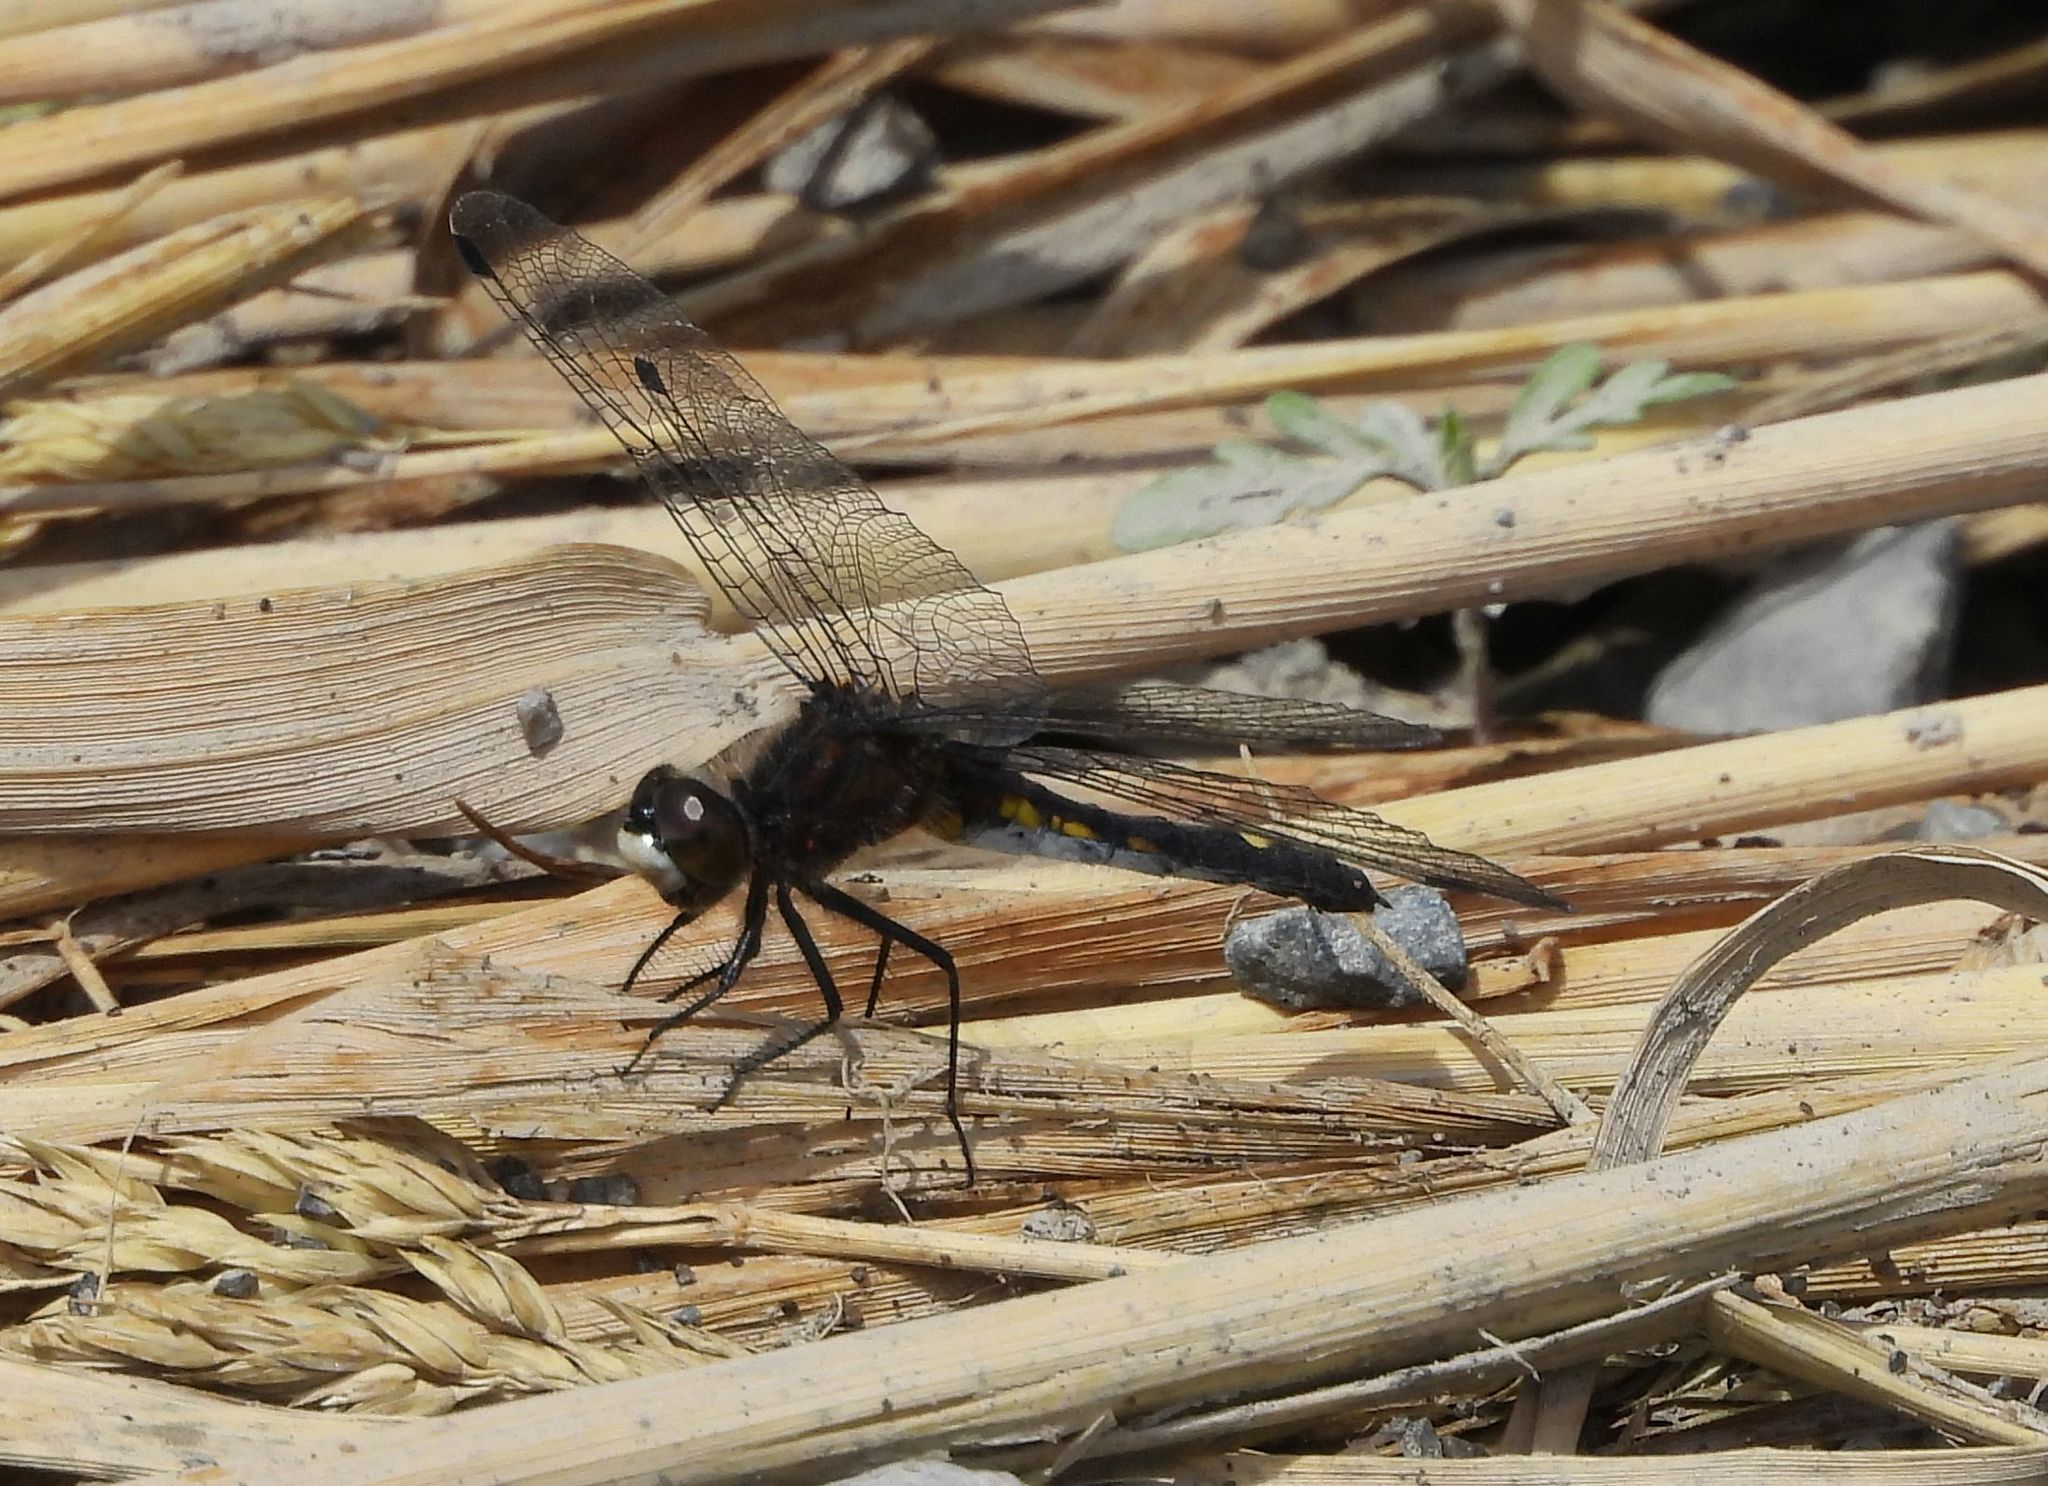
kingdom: Animalia
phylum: Arthropoda
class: Insecta
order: Odonata
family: Libellulidae
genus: Leucorrhinia
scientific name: Leucorrhinia intacta
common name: Dot-tailed whiteface
